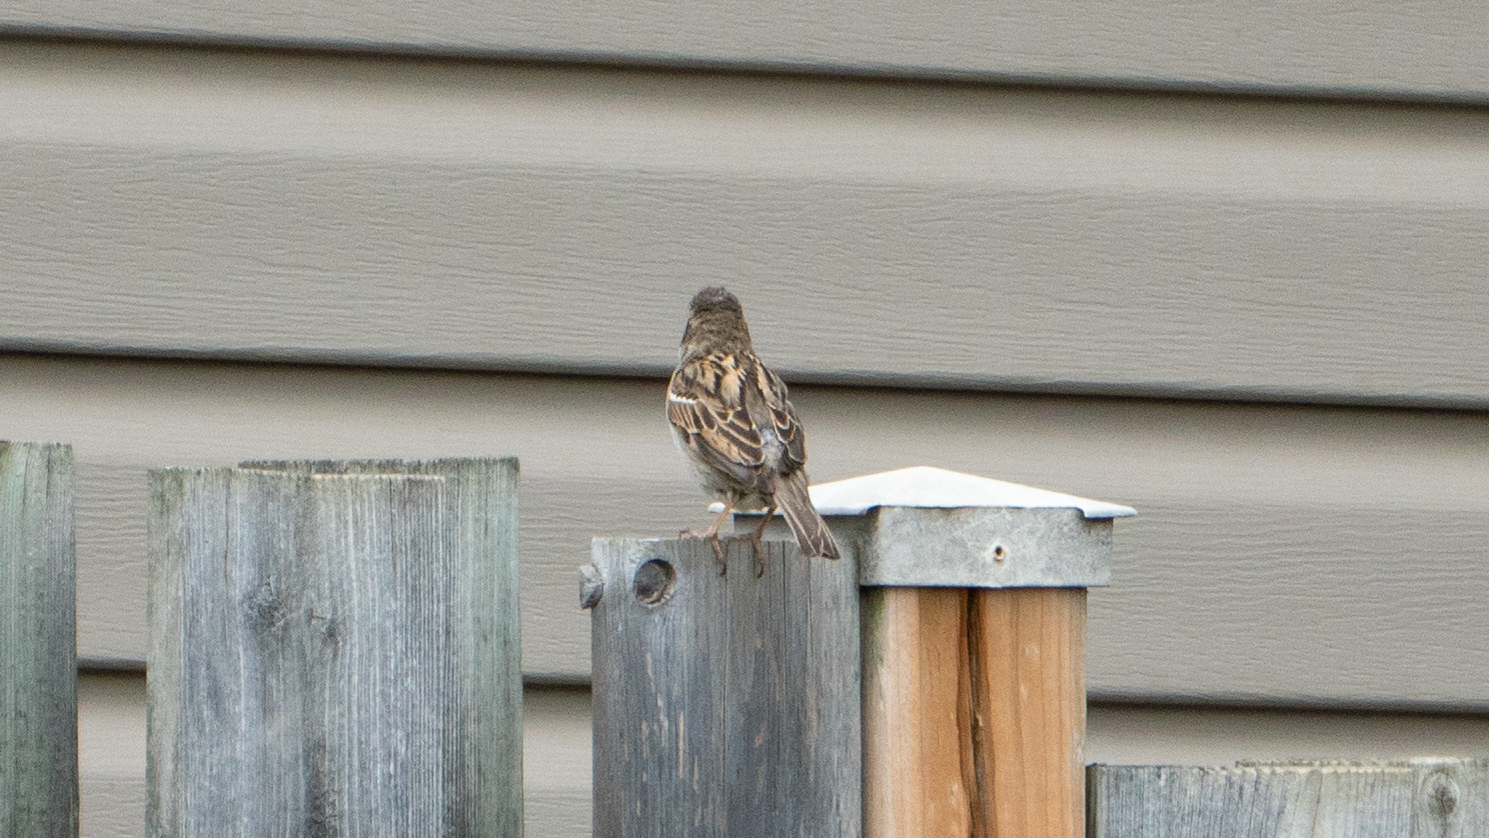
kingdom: Animalia
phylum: Chordata
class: Aves
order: Passeriformes
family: Passeridae
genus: Passer
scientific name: Passer domesticus
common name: House sparrow
